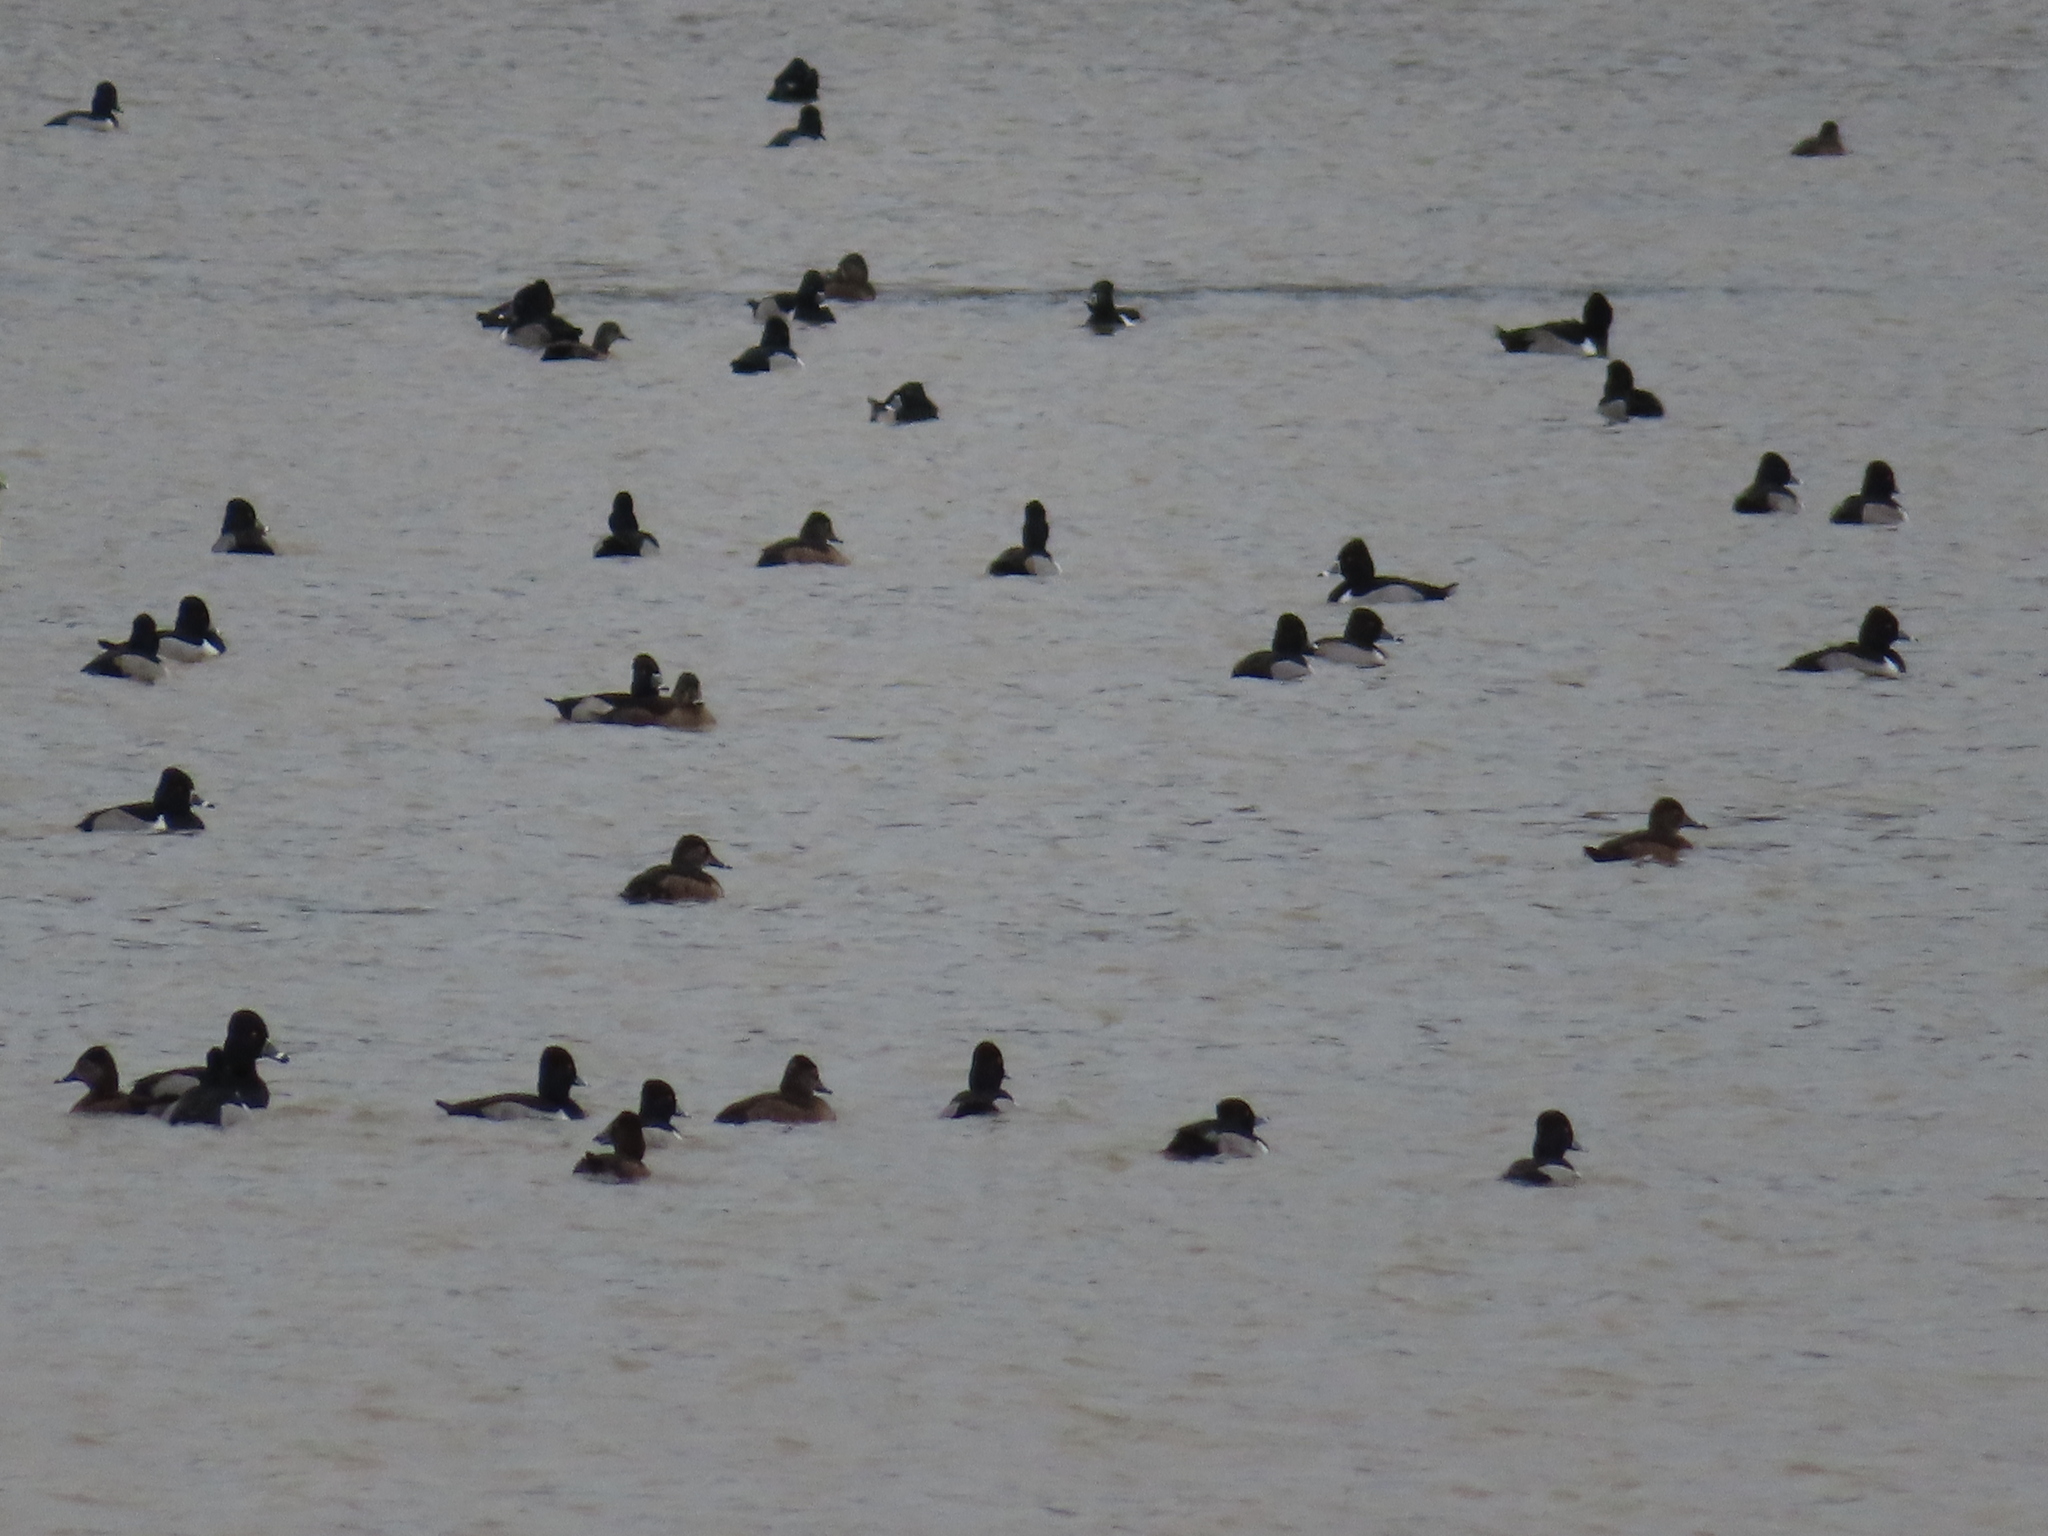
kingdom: Animalia
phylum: Chordata
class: Aves
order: Anseriformes
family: Anatidae
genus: Aythya
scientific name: Aythya collaris
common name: Ring-necked duck
